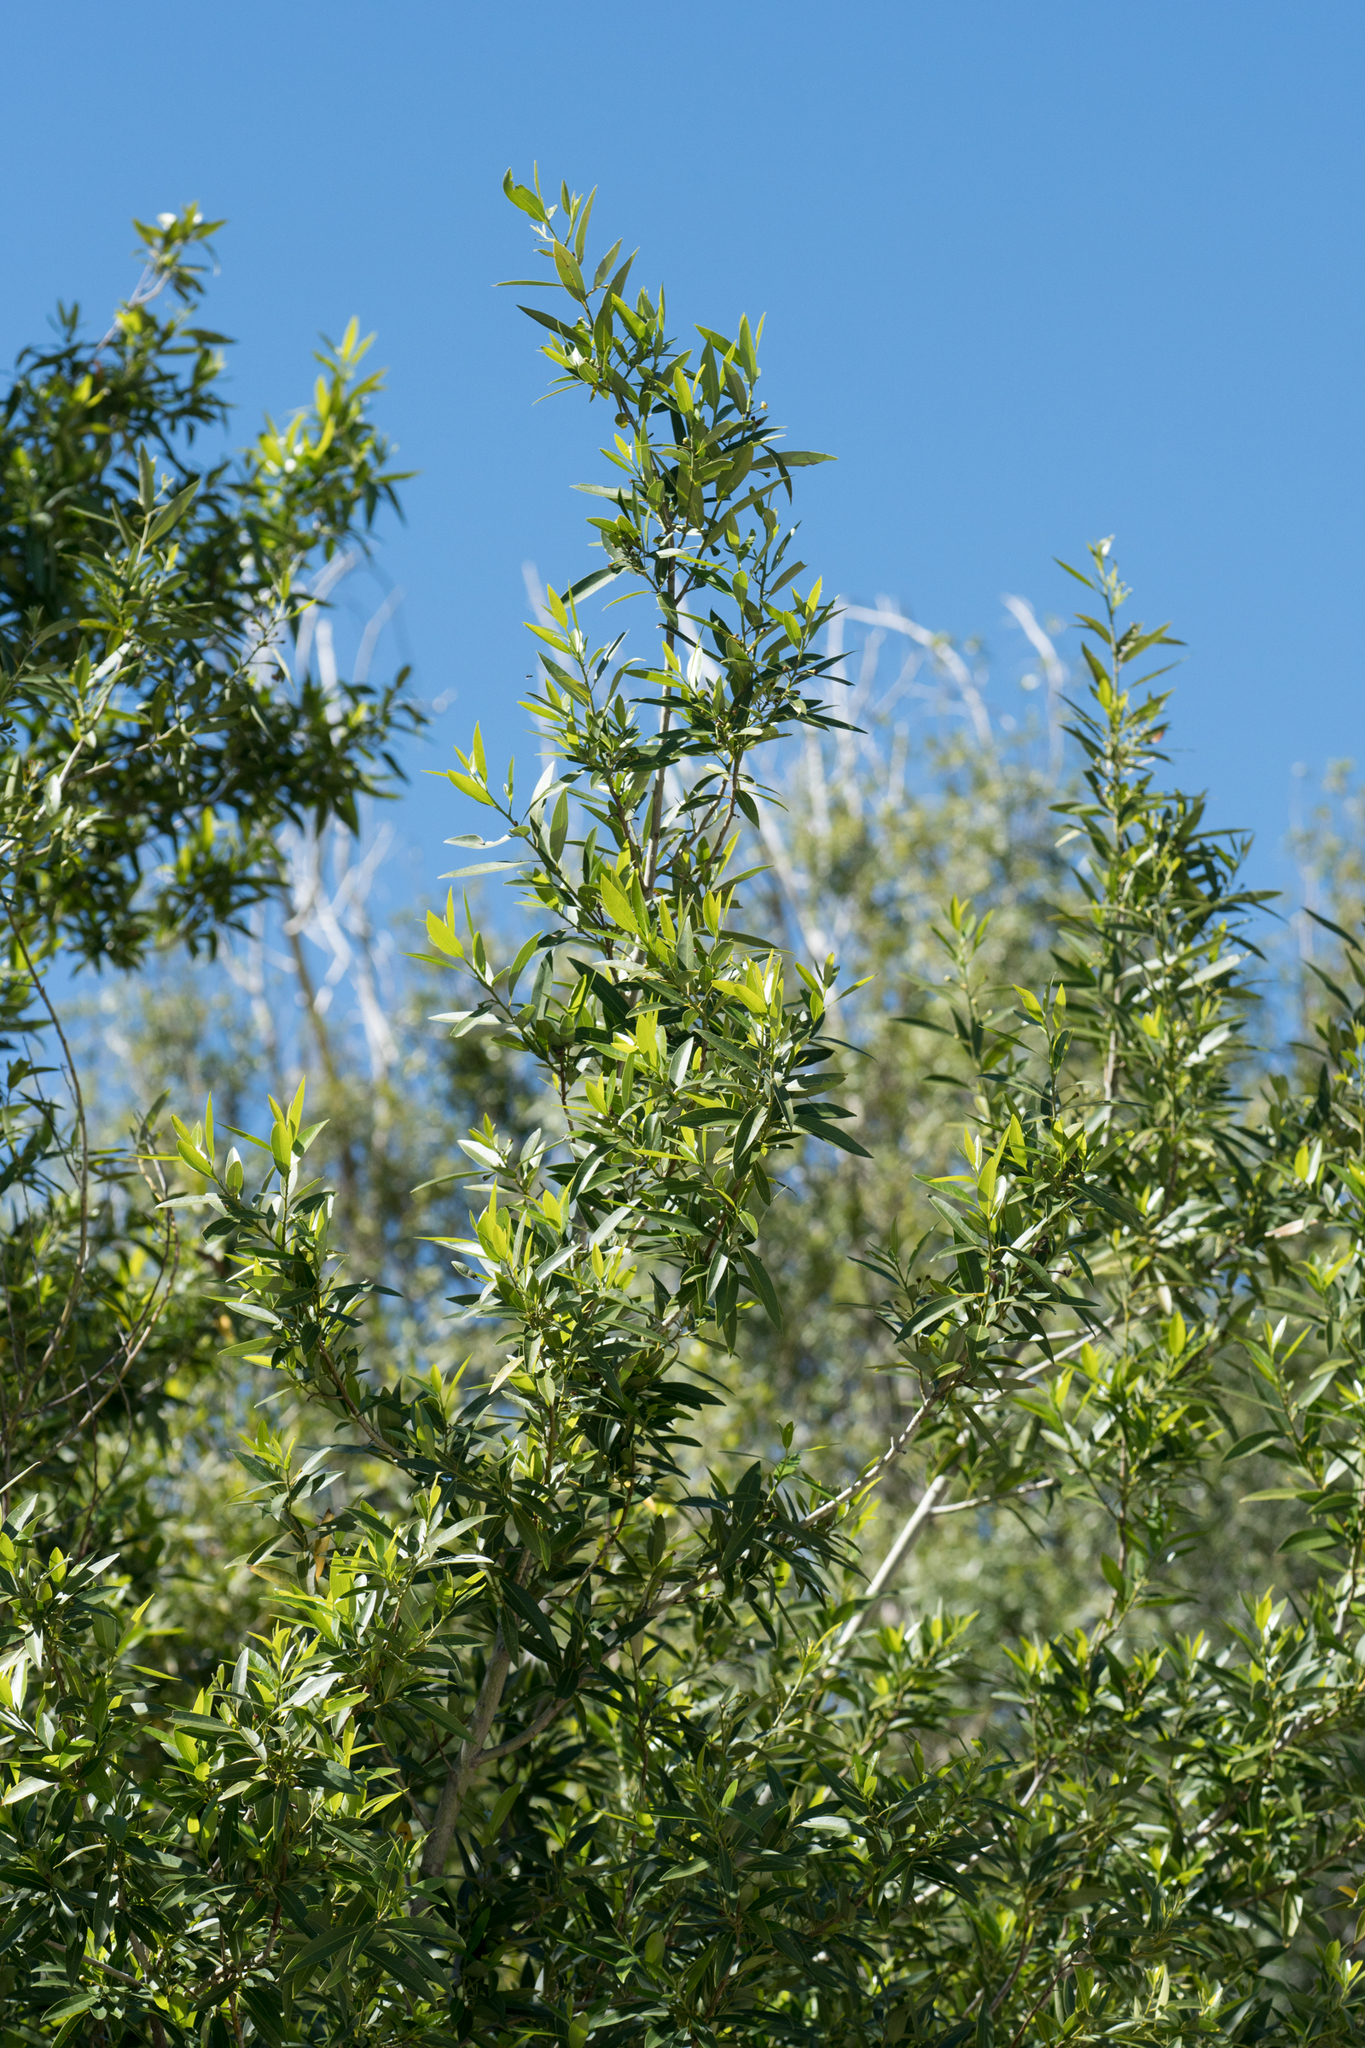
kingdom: Plantae
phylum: Tracheophyta
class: Magnoliopsida
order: Laurales
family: Lauraceae
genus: Umbellularia
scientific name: Umbellularia californica
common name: California bay
